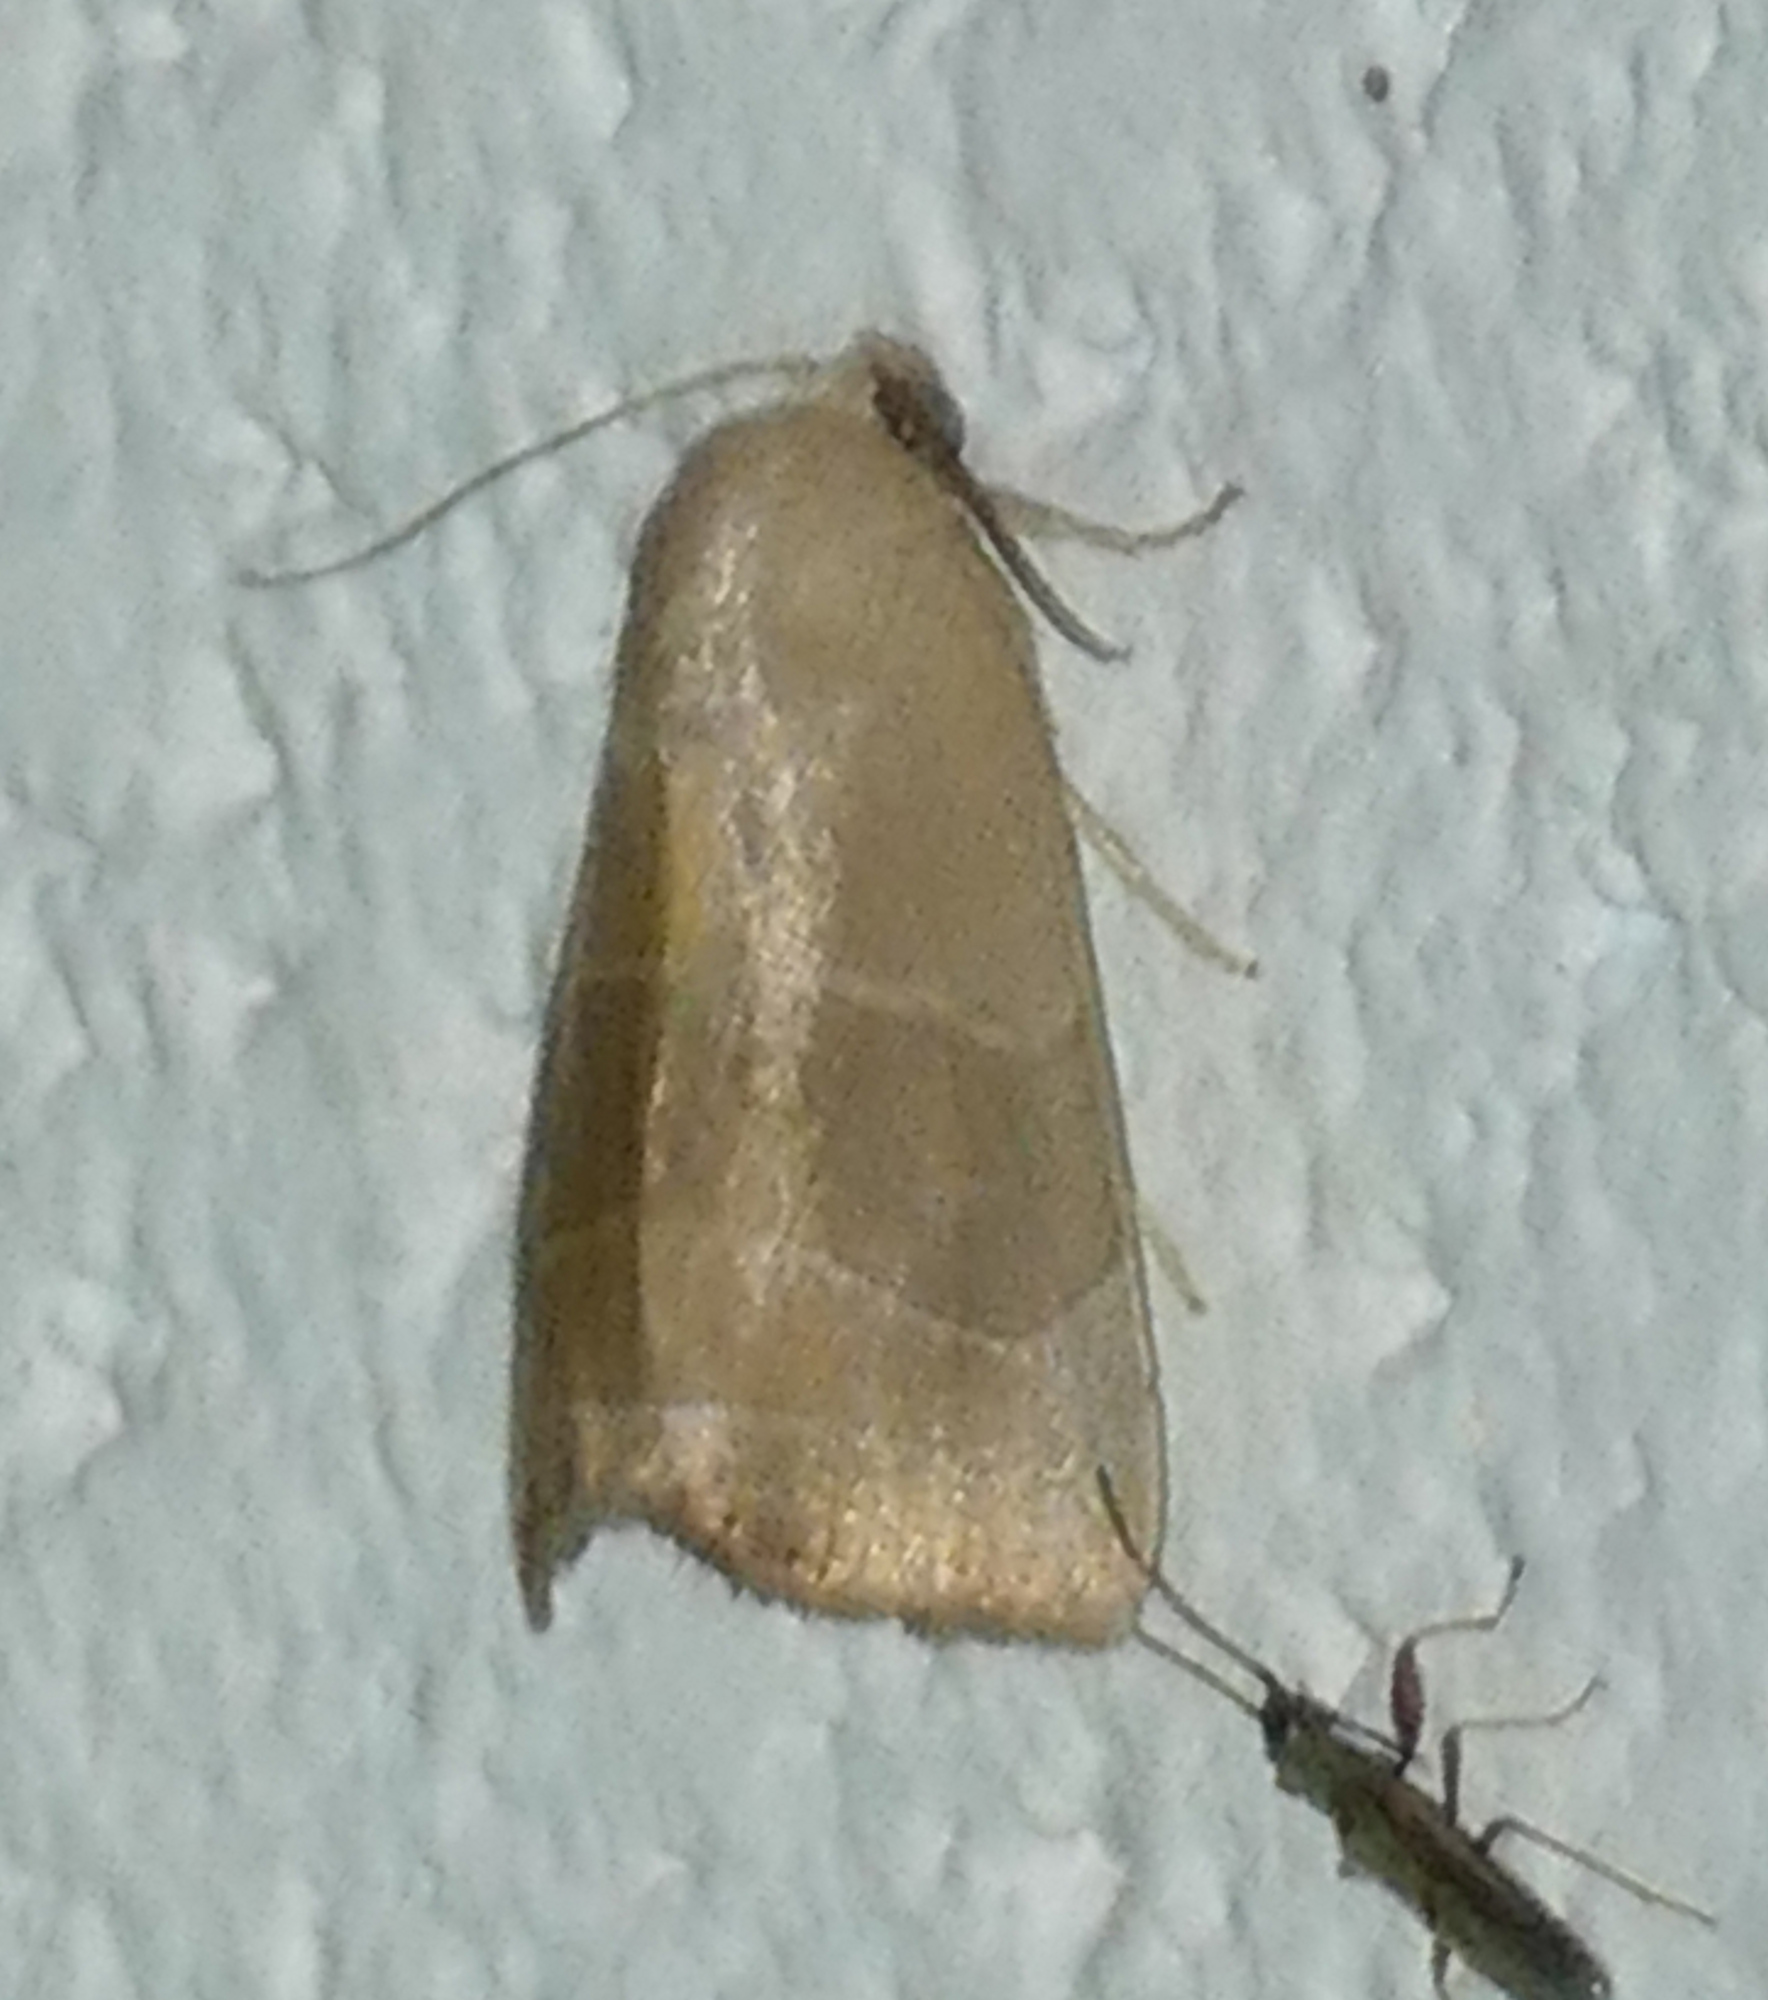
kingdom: Animalia
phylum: Arthropoda
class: Insecta
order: Lepidoptera
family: Noctuidae
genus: Bagisara
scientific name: Bagisara rectifascia
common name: Straight lined mallow moth
